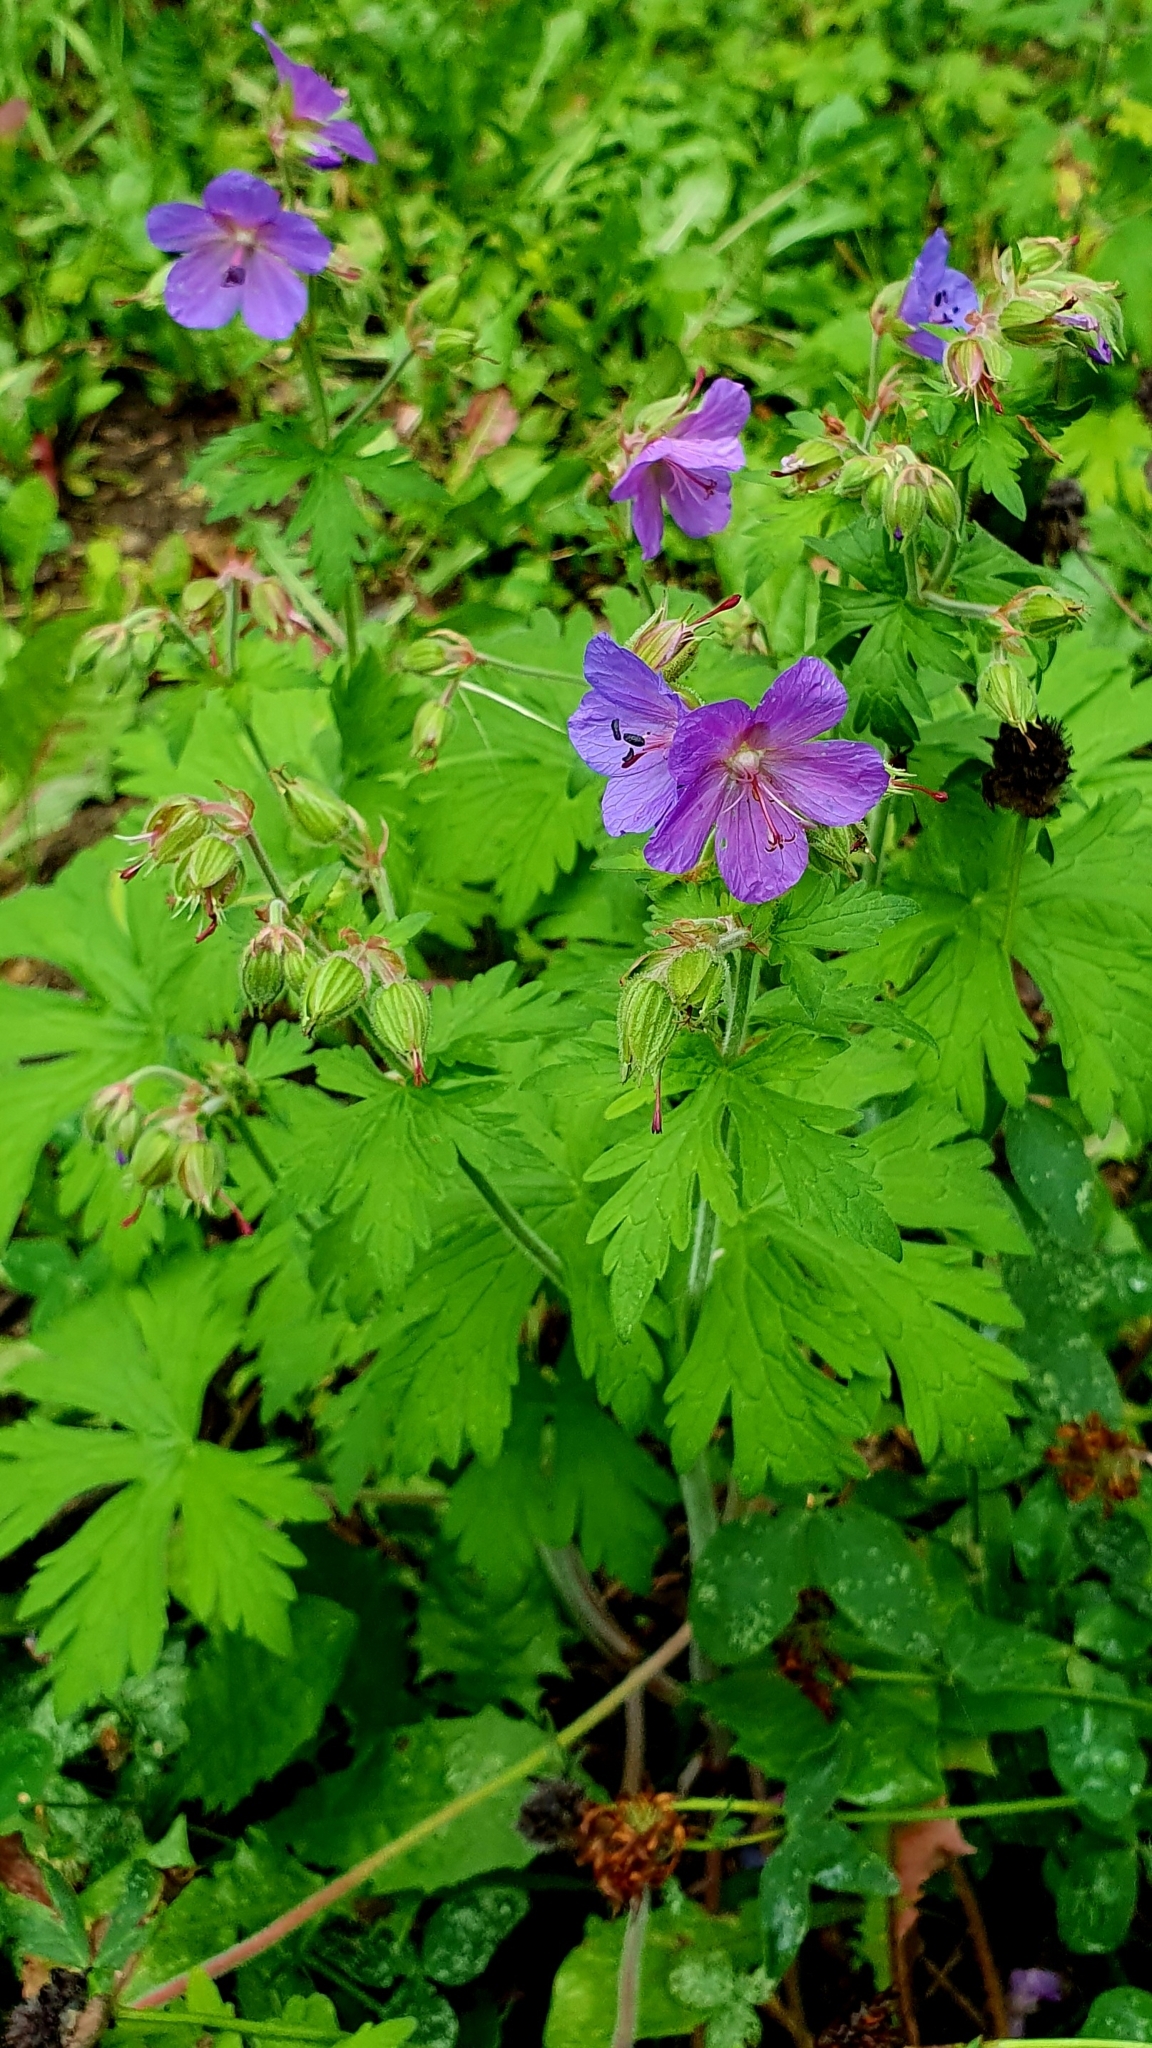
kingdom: Plantae
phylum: Tracheophyta
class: Magnoliopsida
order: Geraniales
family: Geraniaceae
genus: Geranium
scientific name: Geranium pratense
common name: Meadow crane's-bill
